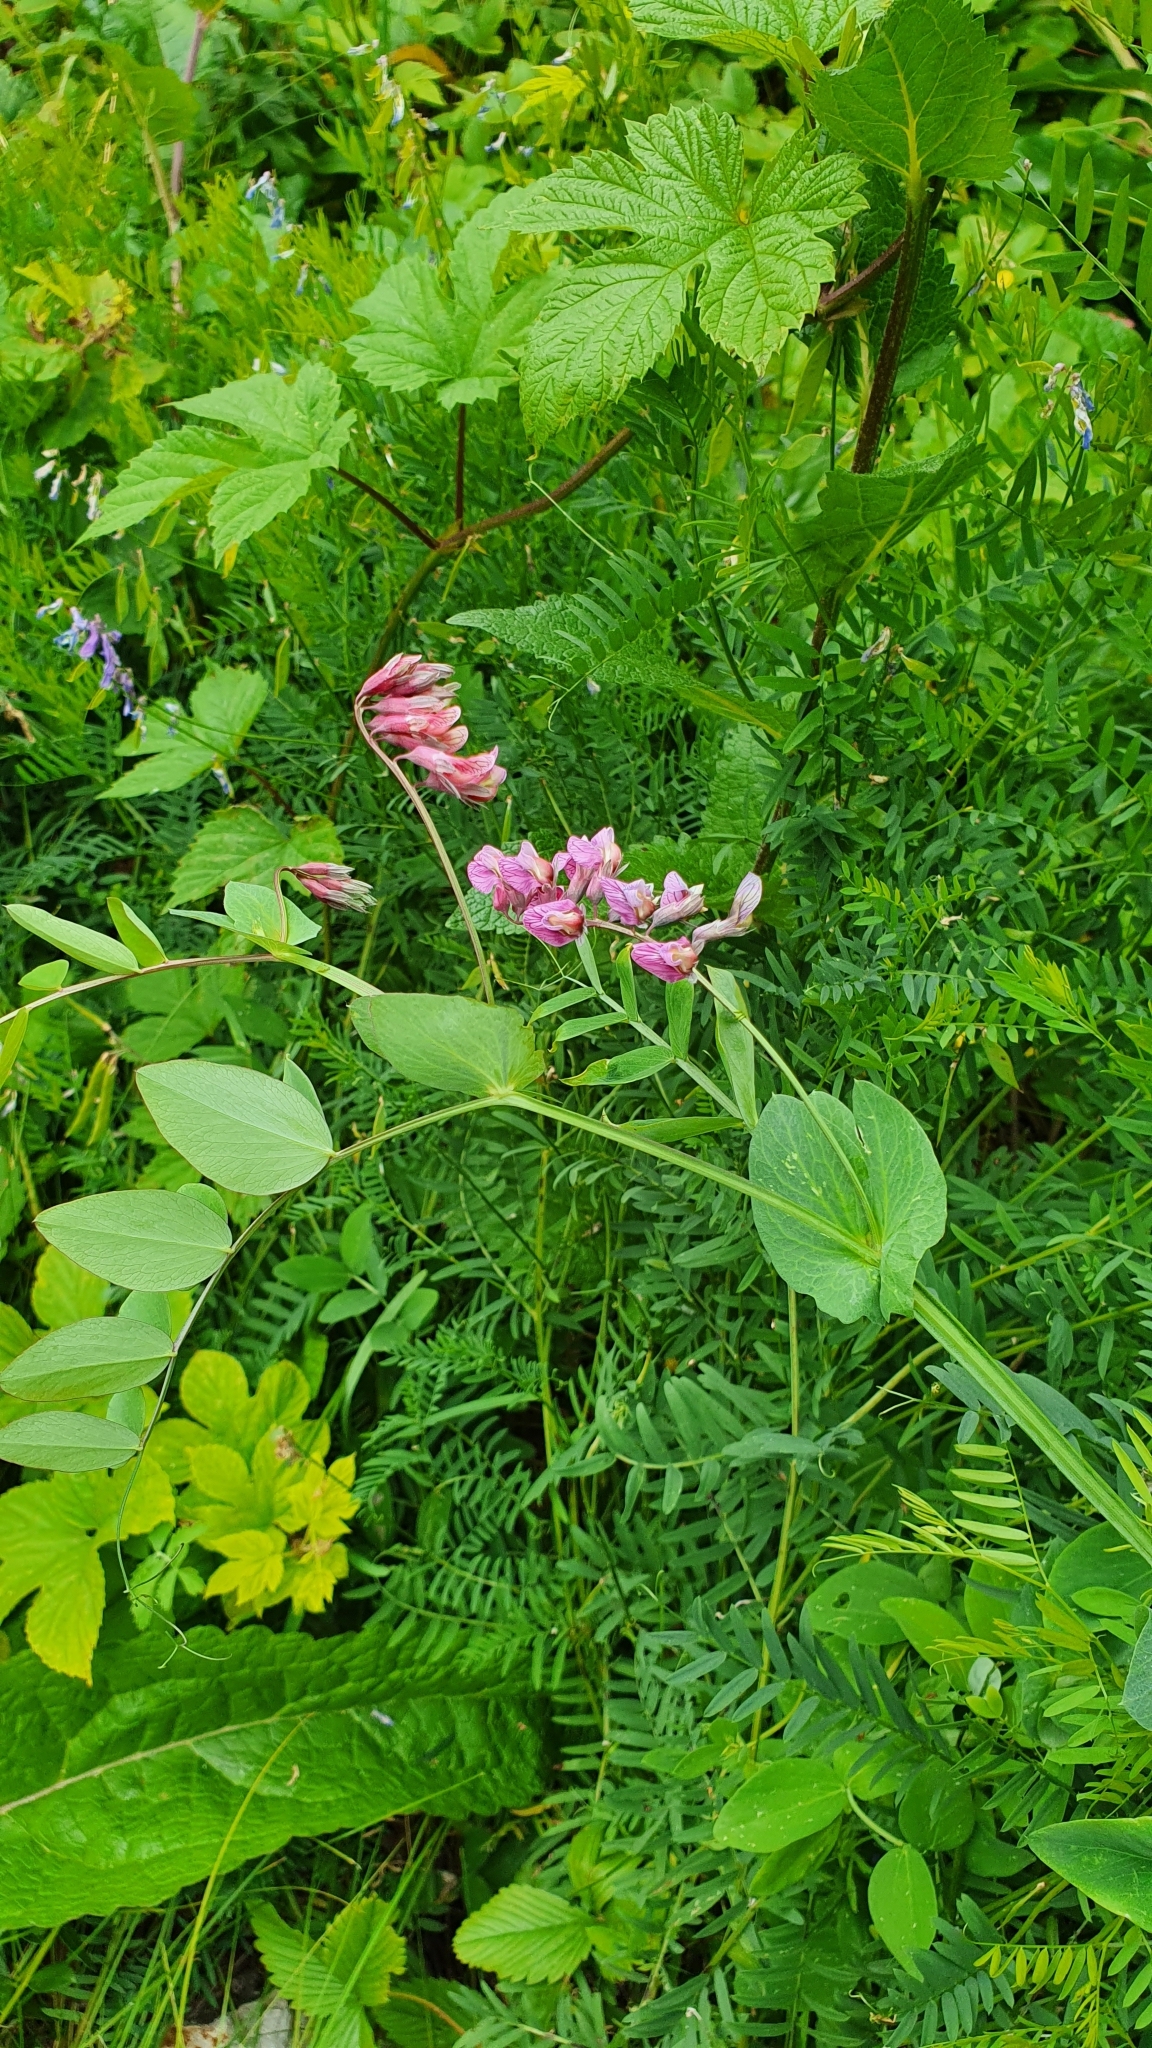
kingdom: Plantae
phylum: Tracheophyta
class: Magnoliopsida
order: Fabales
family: Fabaceae
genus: Lathyrus
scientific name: Lathyrus pisiformis
